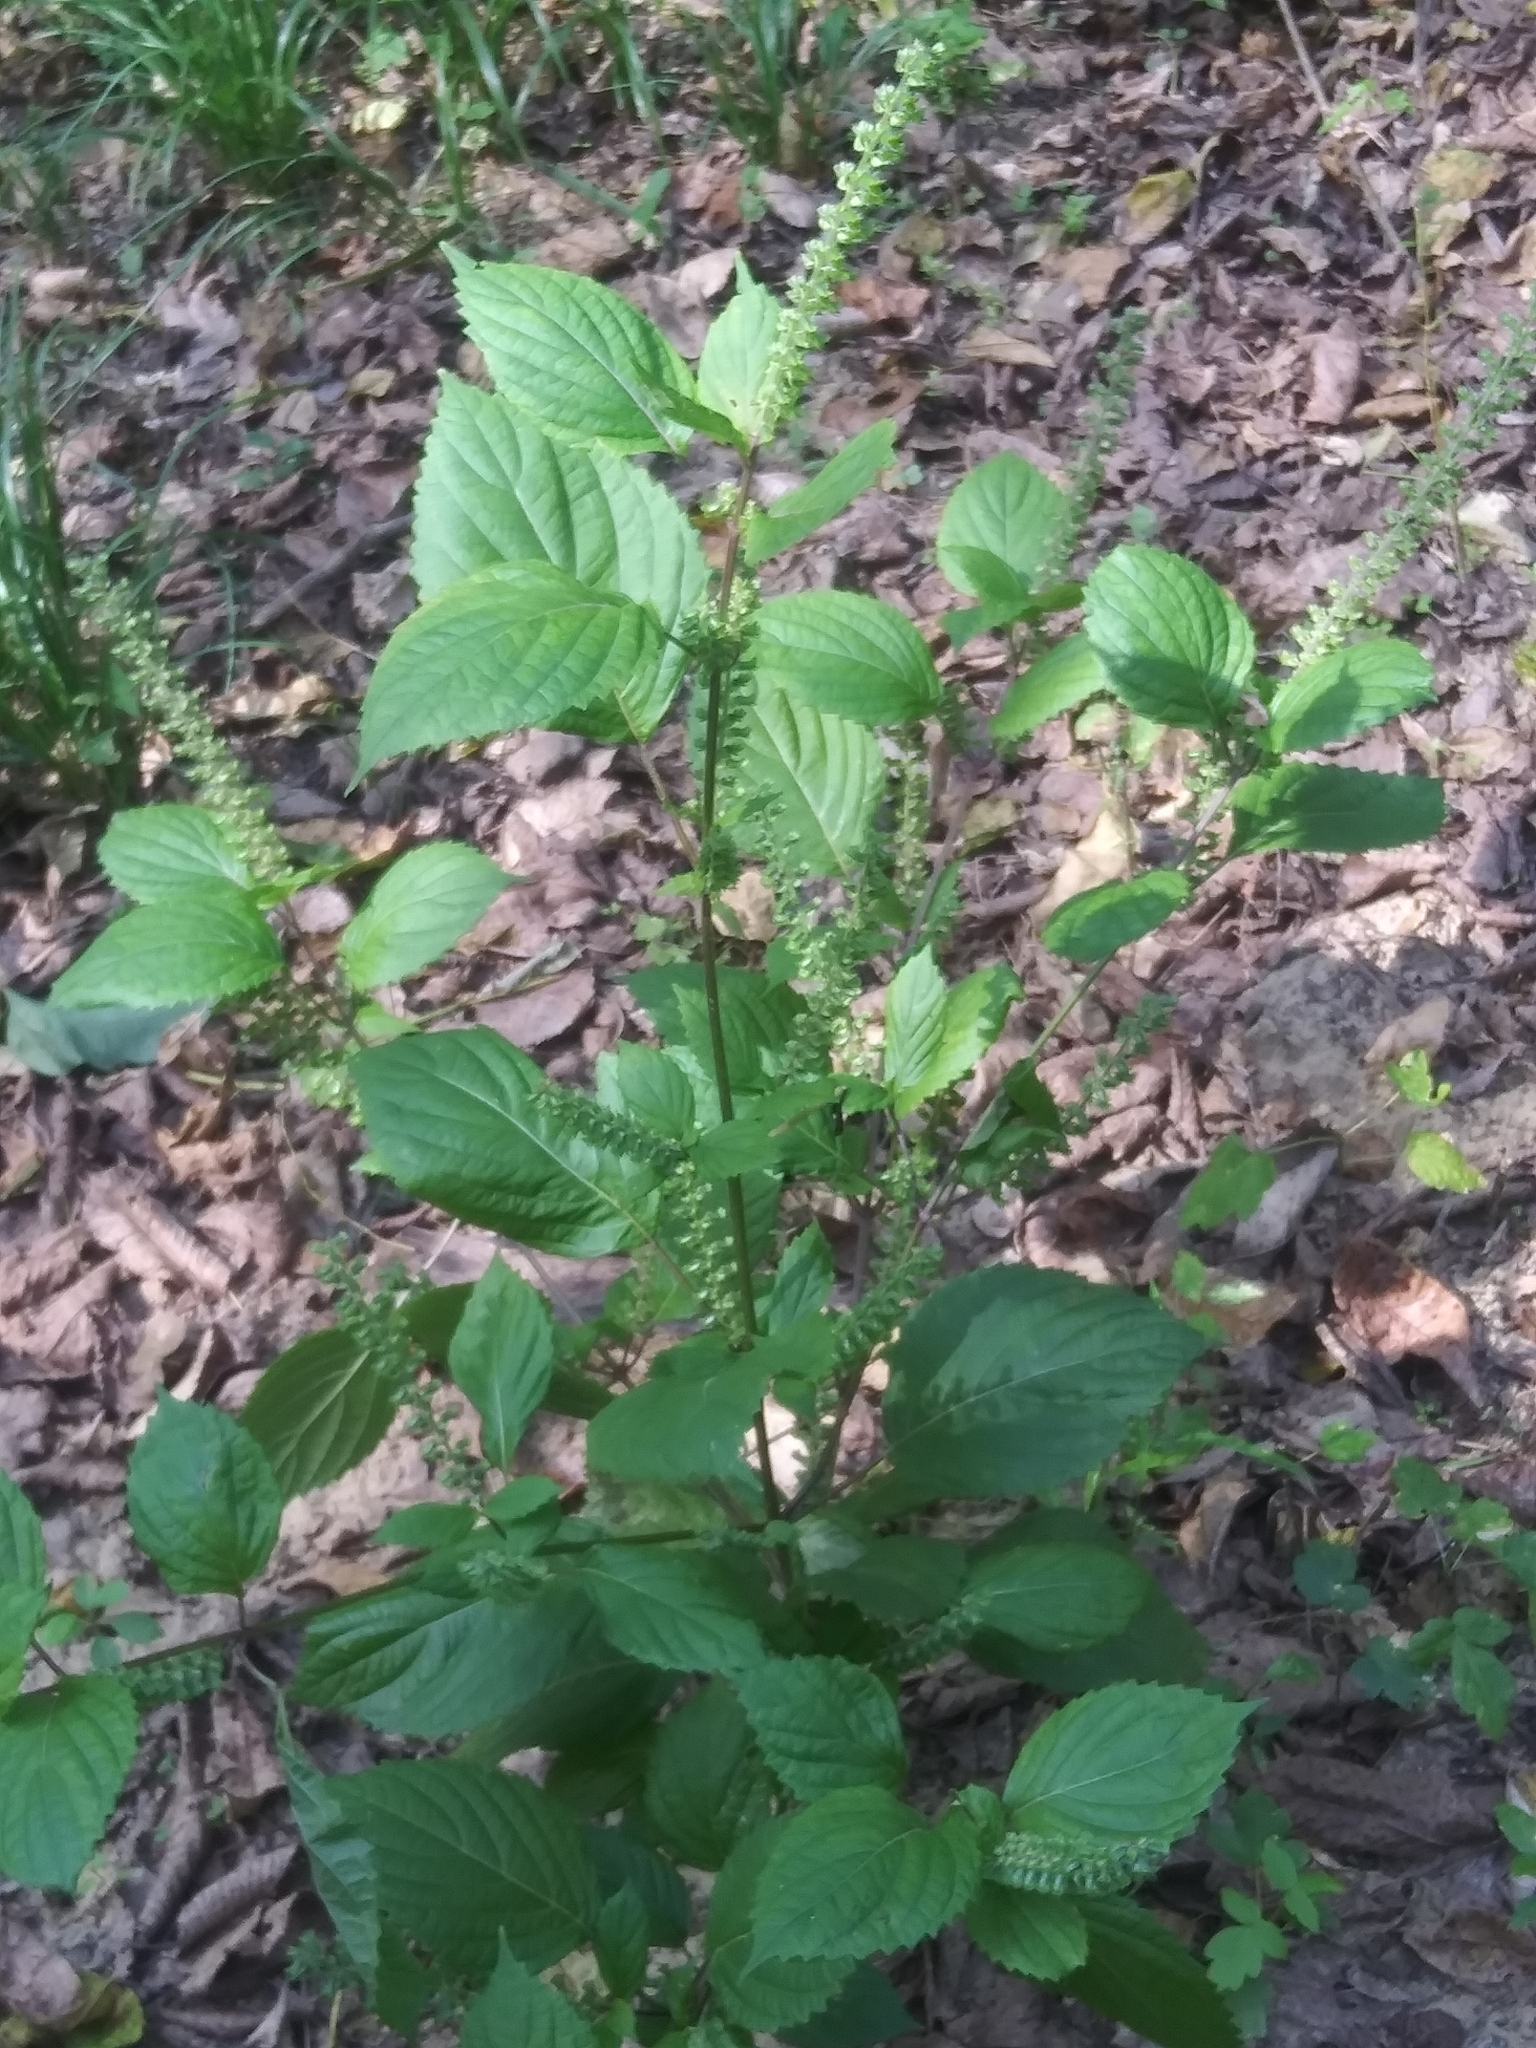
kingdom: Plantae
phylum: Tracheophyta
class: Magnoliopsida
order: Lamiales
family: Lamiaceae
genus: Perilla
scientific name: Perilla frutescens
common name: Perilla
